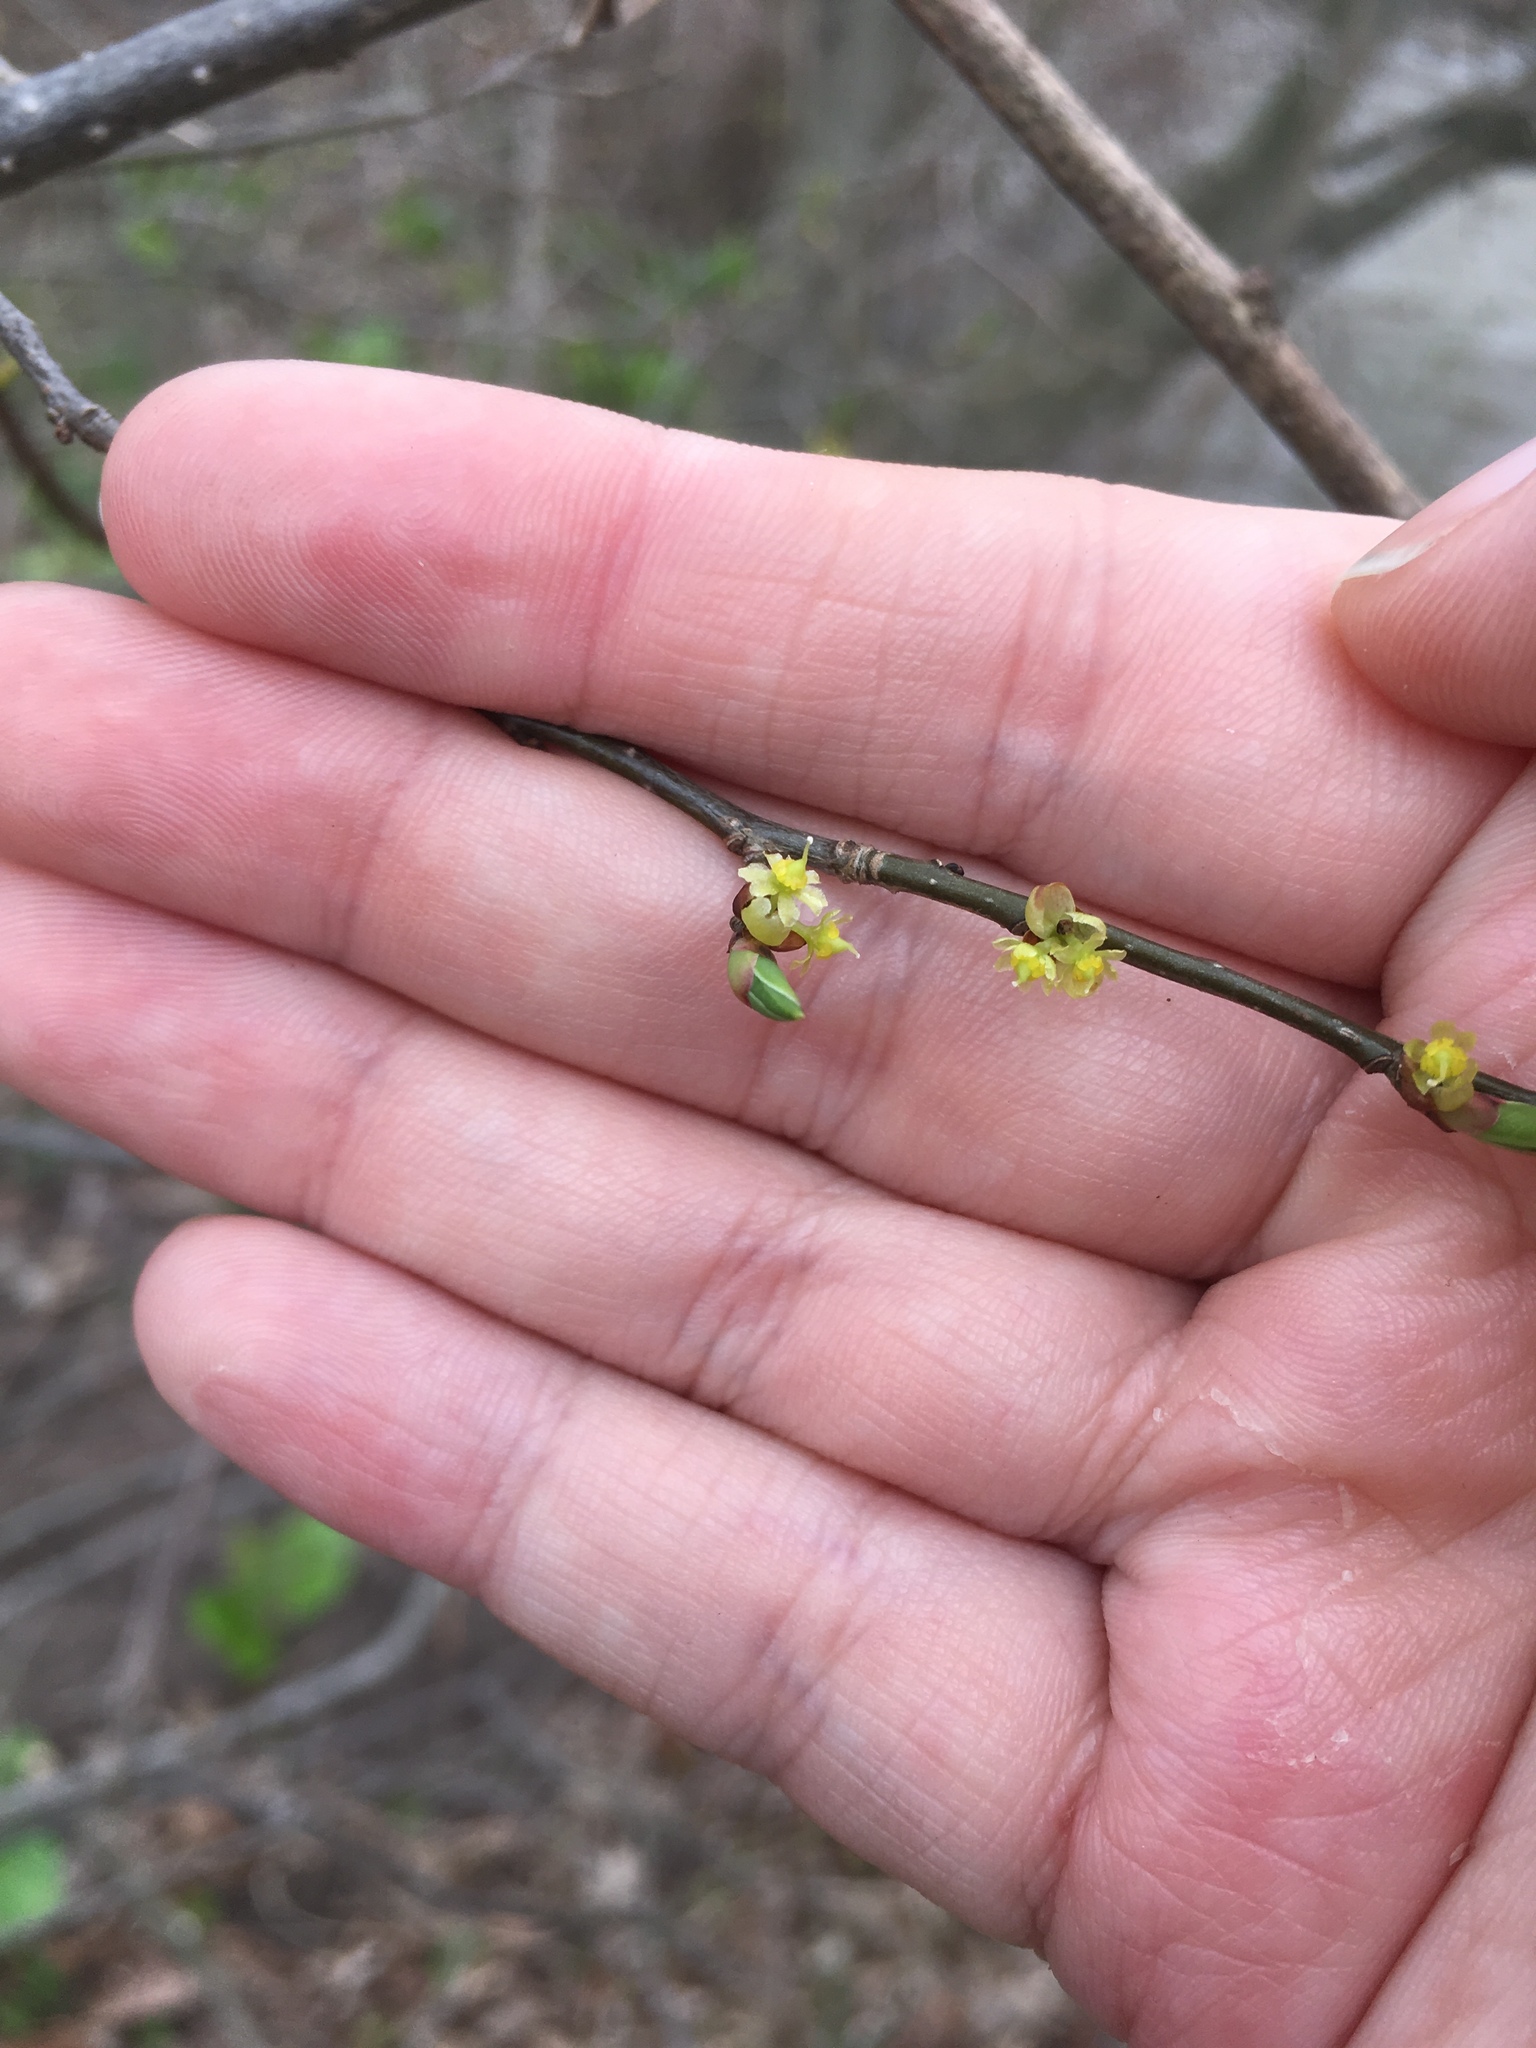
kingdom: Plantae
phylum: Tracheophyta
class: Magnoliopsida
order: Laurales
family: Lauraceae
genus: Lindera
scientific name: Lindera benzoin
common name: Spicebush
